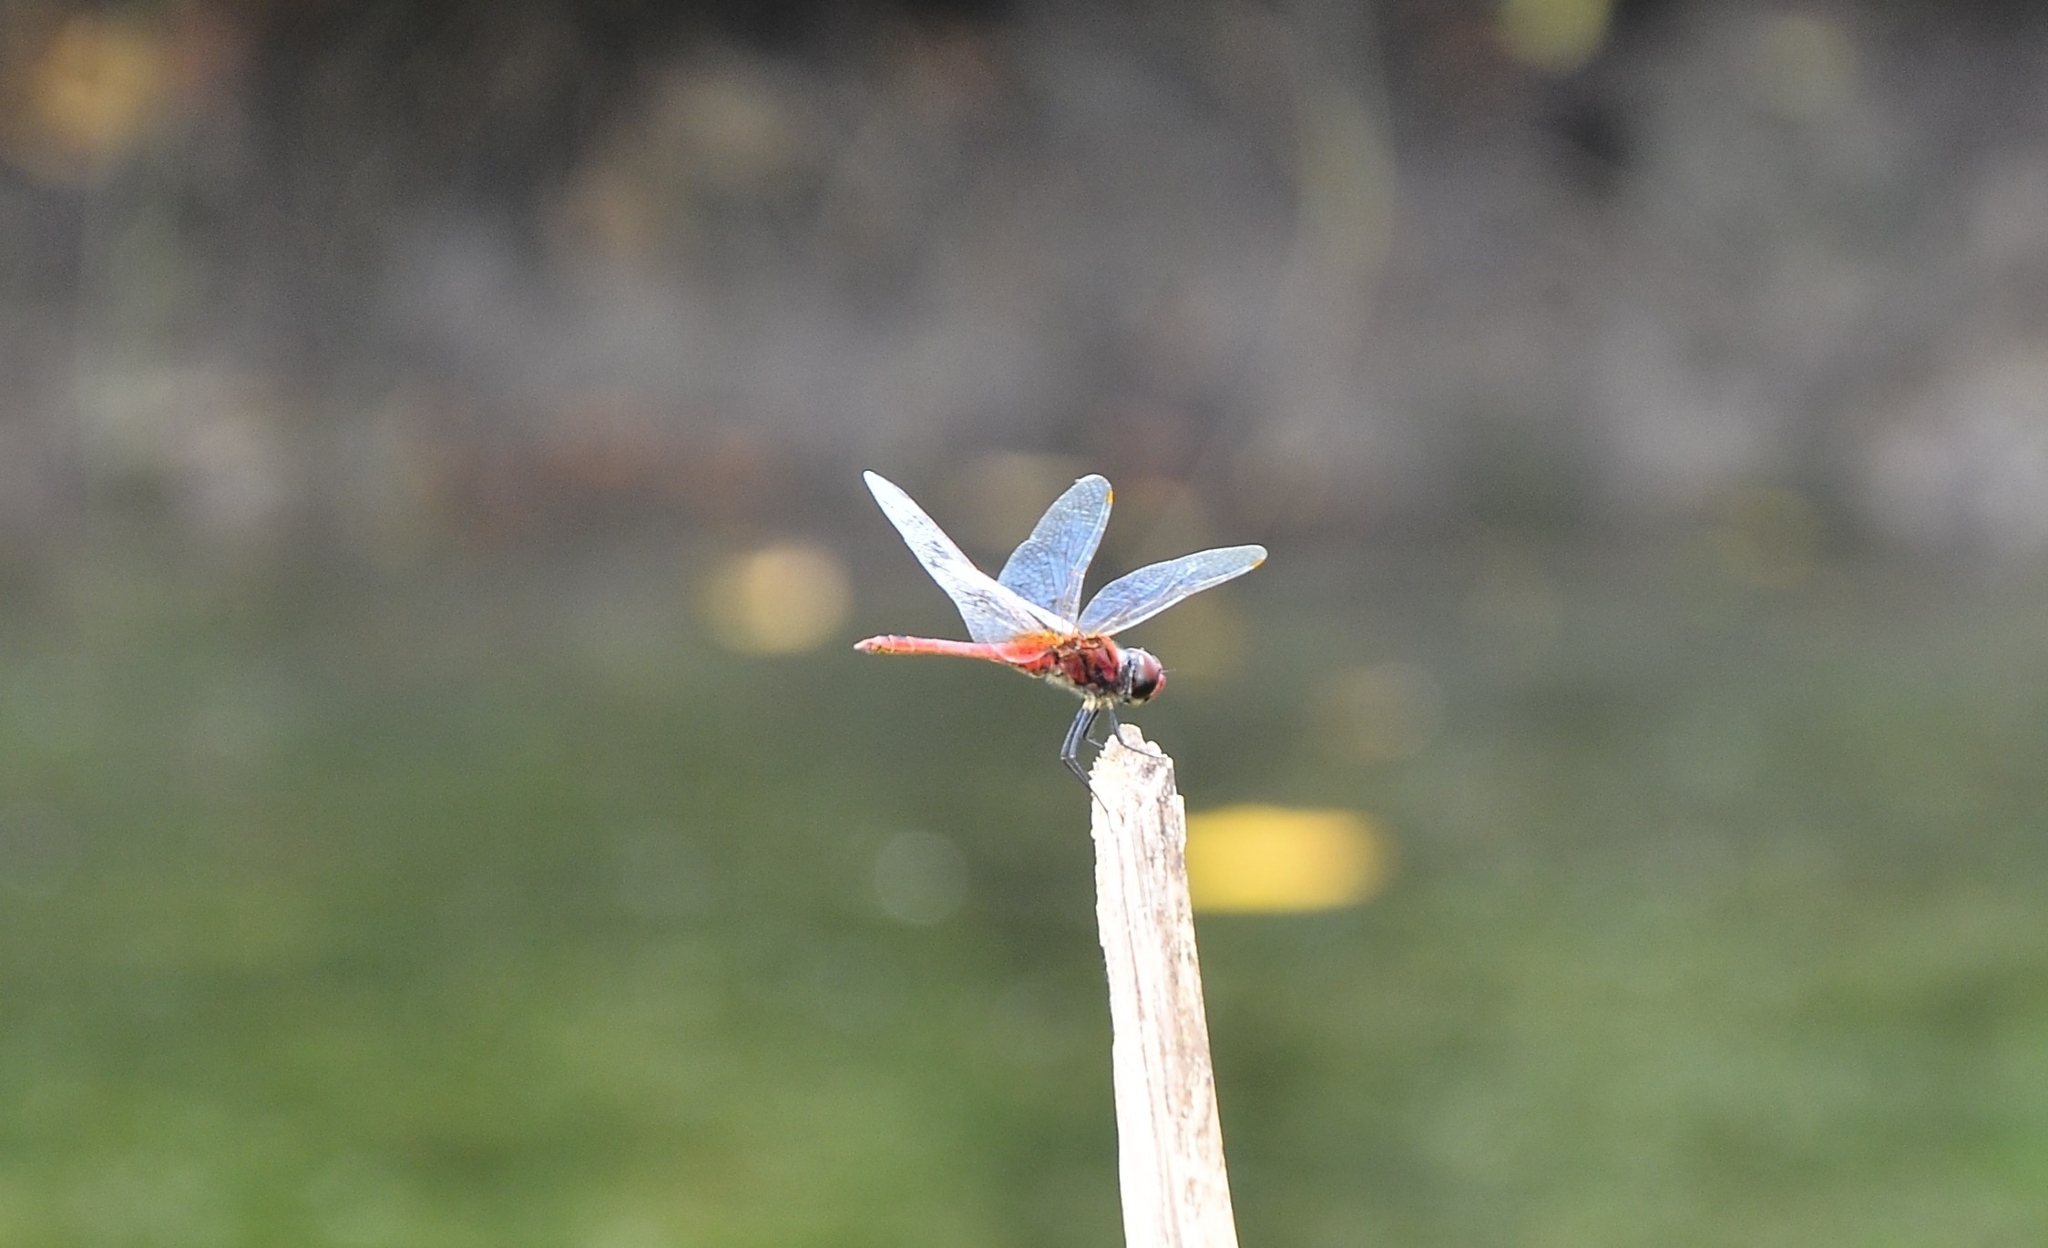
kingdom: Animalia
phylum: Arthropoda
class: Insecta
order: Odonata
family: Libellulidae
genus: Macrodiplax
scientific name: Macrodiplax cora
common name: Coastal glider
